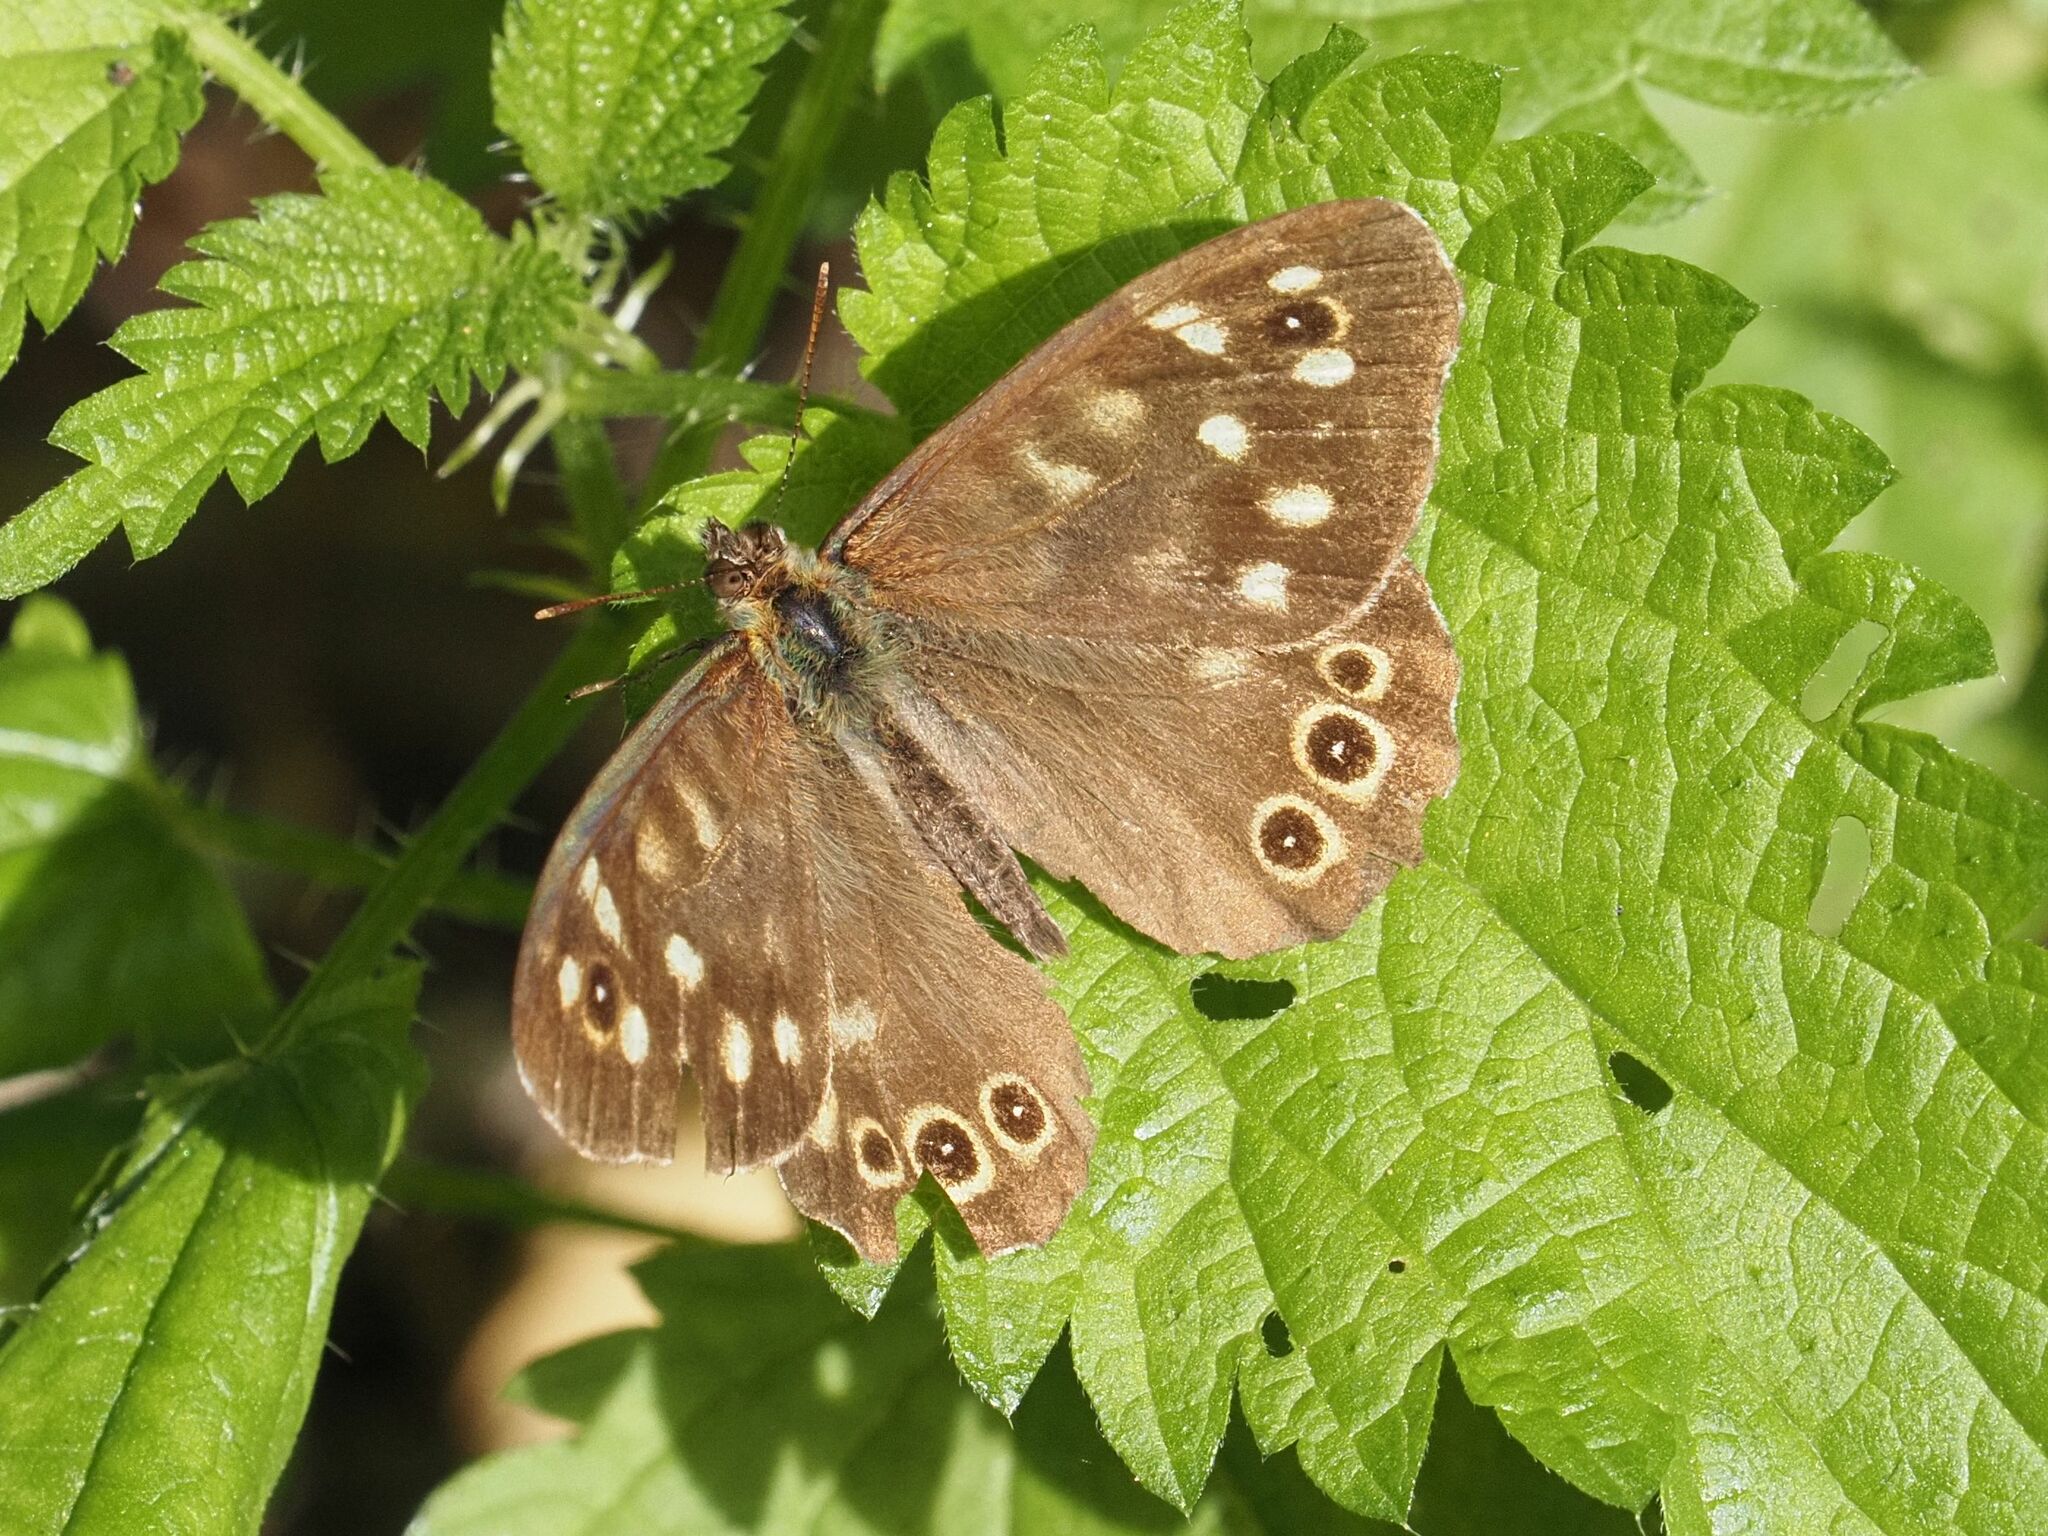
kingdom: Animalia
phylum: Arthropoda
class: Insecta
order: Lepidoptera
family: Nymphalidae
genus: Pararge
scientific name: Pararge aegeria
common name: Speckled wood
